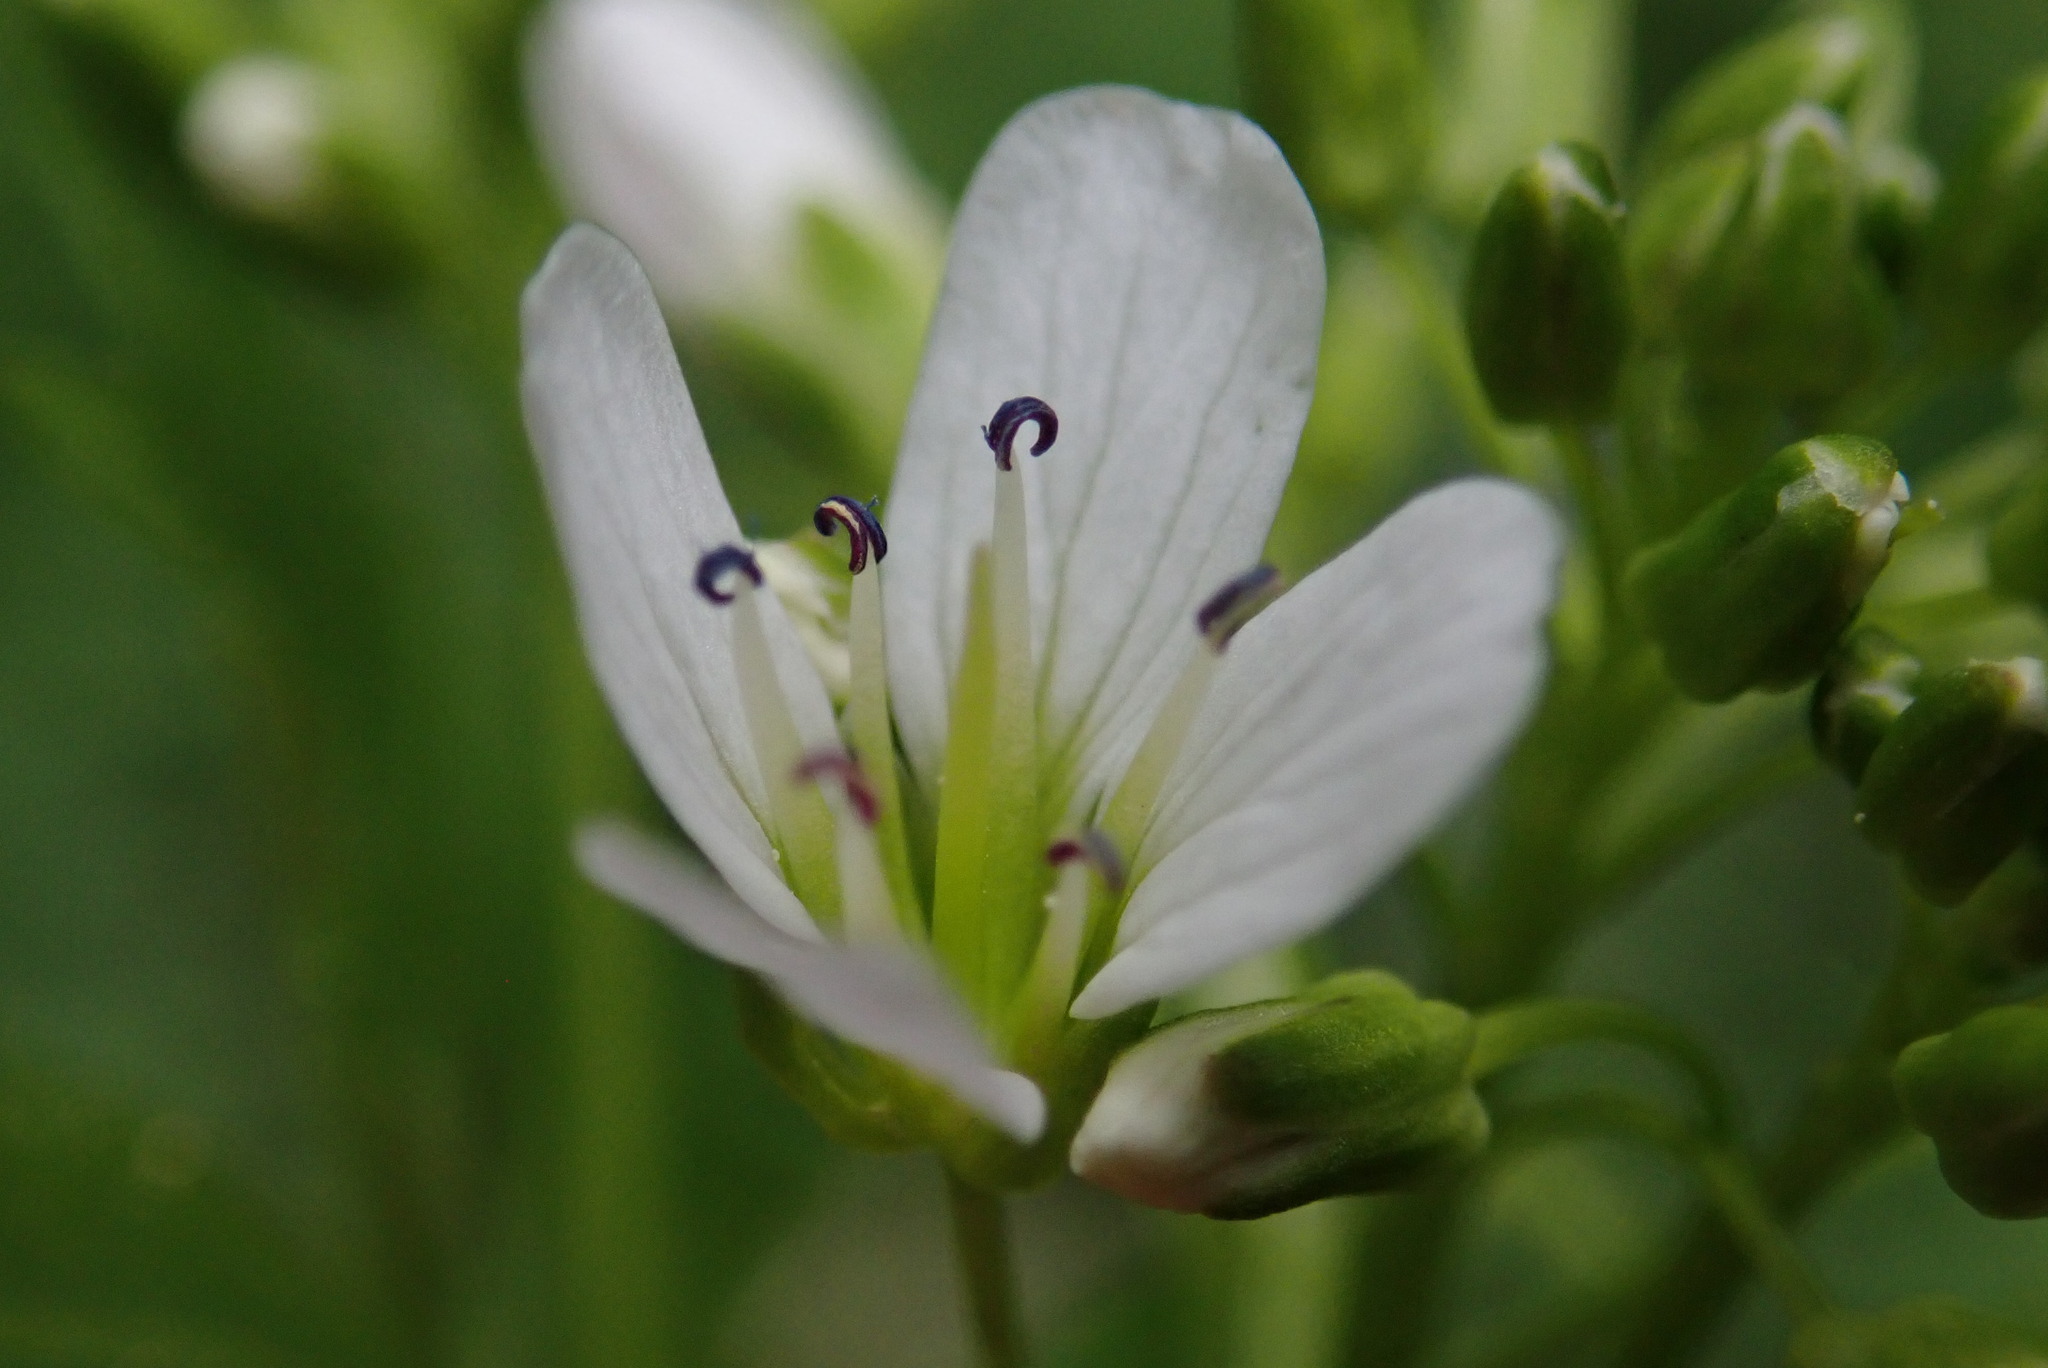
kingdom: Plantae
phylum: Tracheophyta
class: Magnoliopsida
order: Brassicales
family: Brassicaceae
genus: Cardamine
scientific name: Cardamine amara
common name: Large bitter-cress
